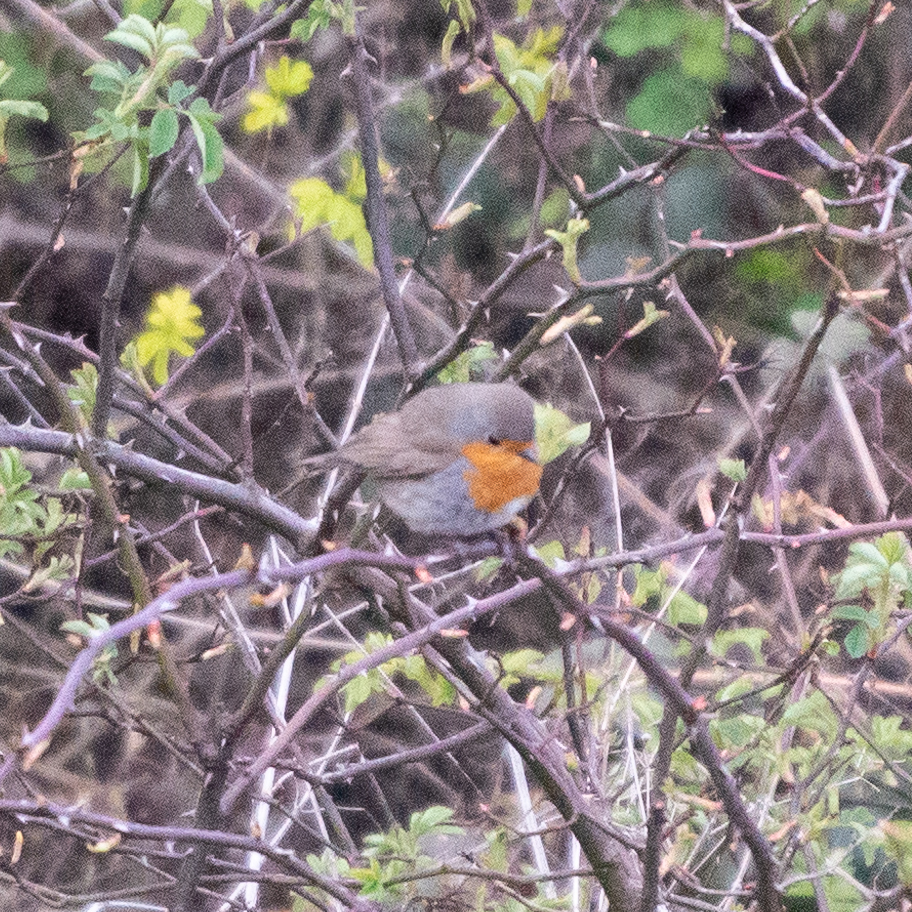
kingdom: Animalia
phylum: Chordata
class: Aves
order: Passeriformes
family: Muscicapidae
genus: Erithacus
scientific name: Erithacus rubecula
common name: European robin
